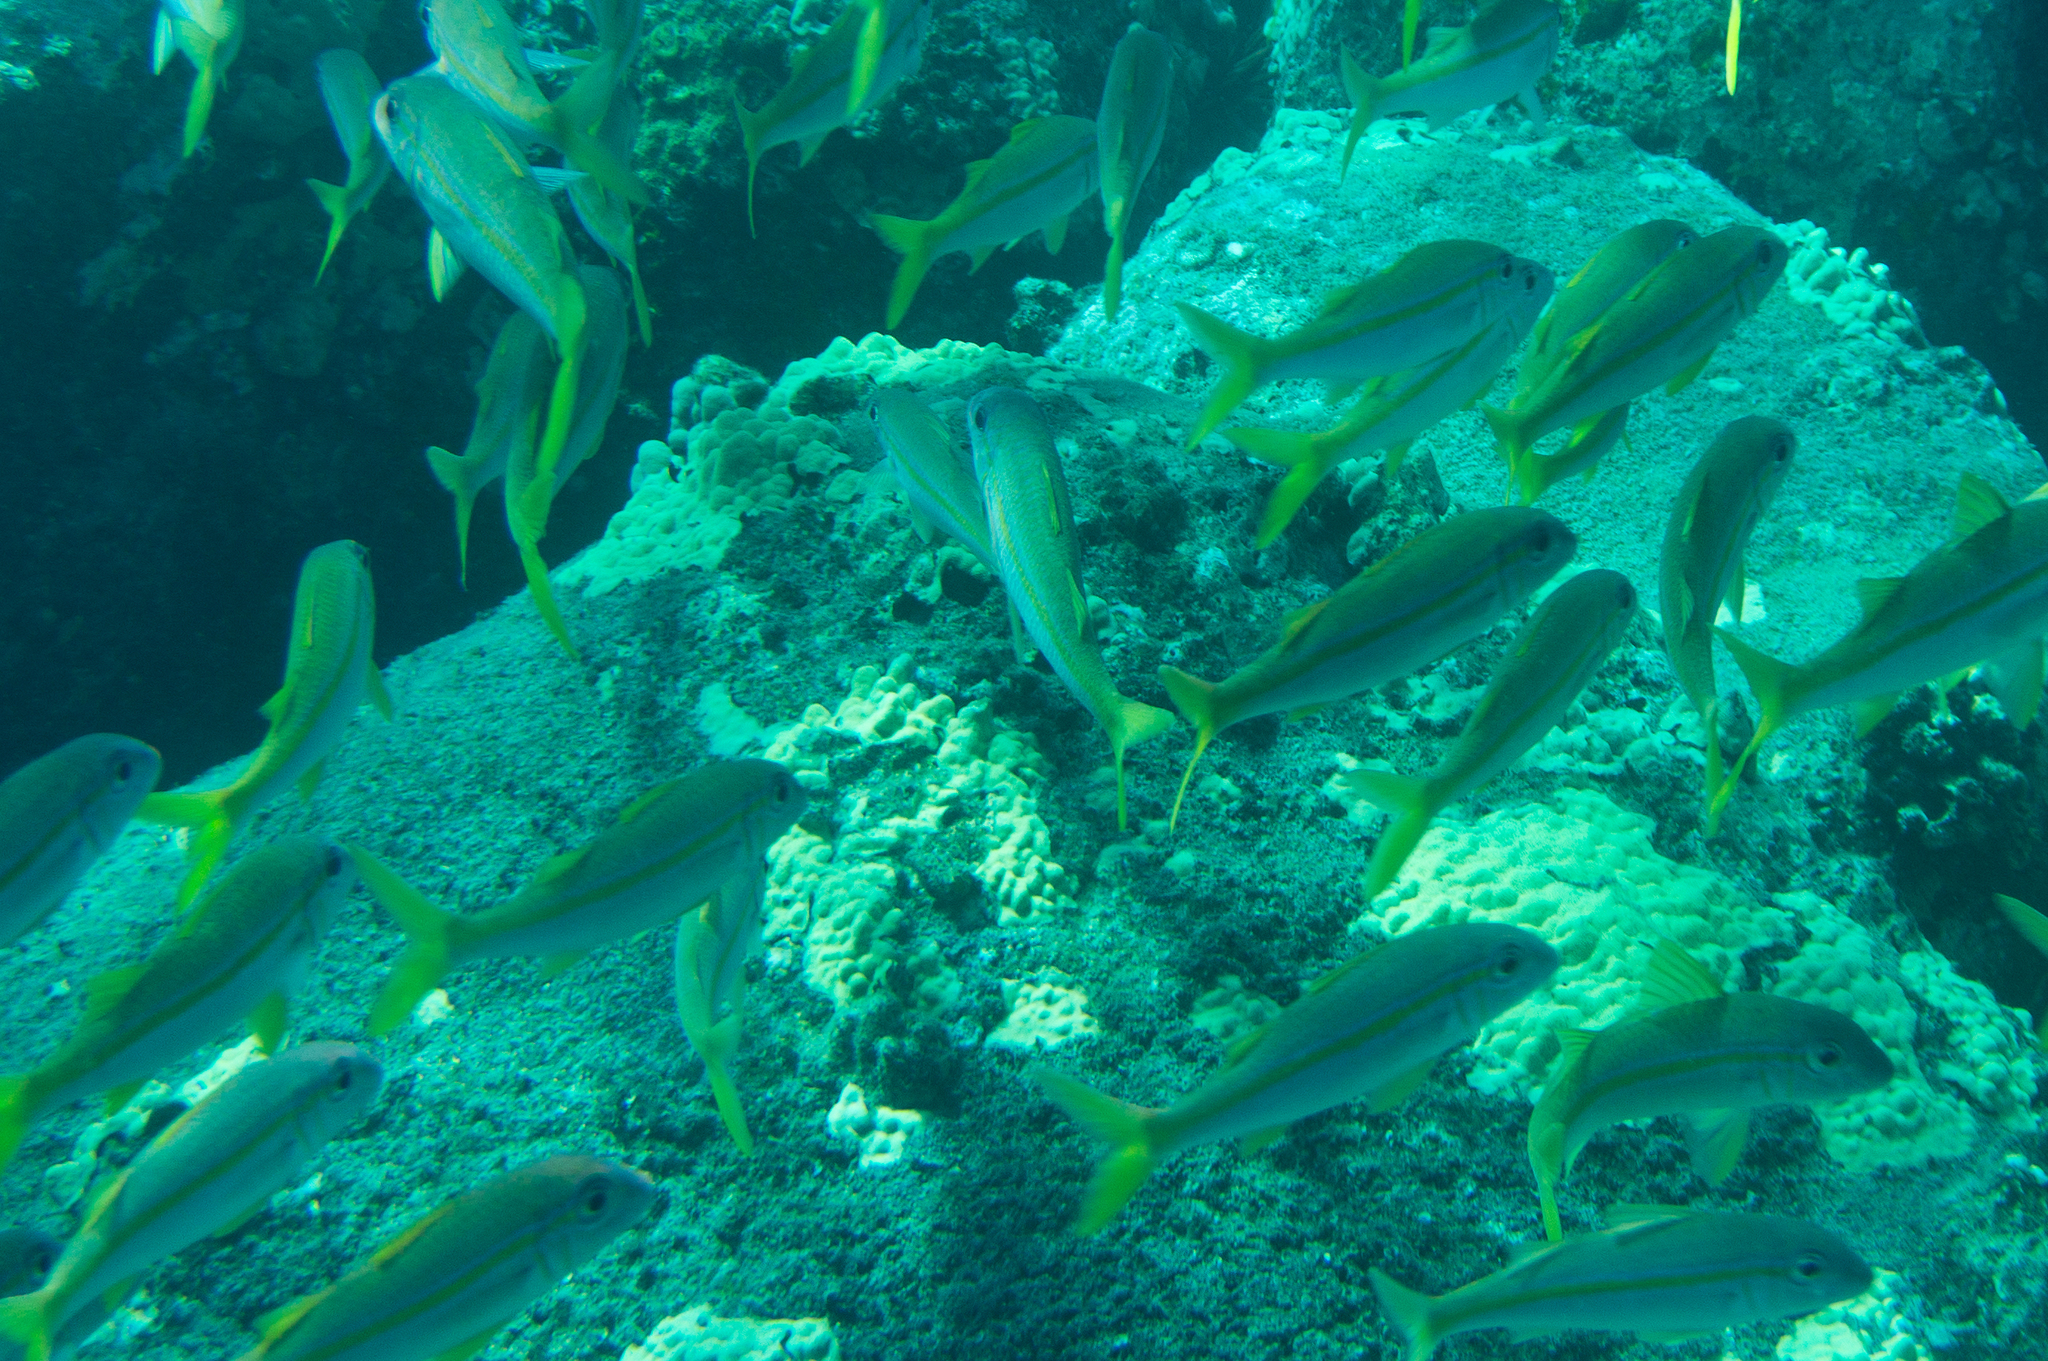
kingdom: Animalia
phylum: Chordata
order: Perciformes
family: Mullidae
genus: Mulloidichthys
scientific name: Mulloidichthys vanicolensis
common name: Yellowfin goatfish
